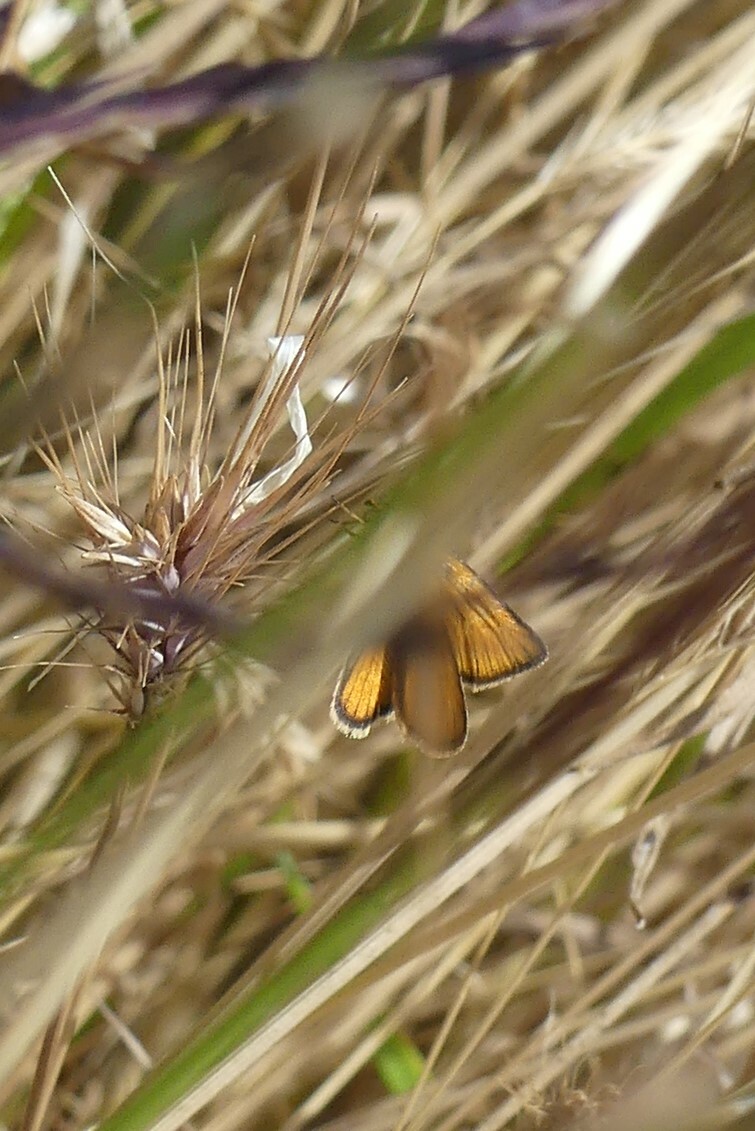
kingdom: Animalia
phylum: Arthropoda
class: Insecta
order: Lepidoptera
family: Hesperiidae
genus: Thymelicus
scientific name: Thymelicus lineola
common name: Essex skipper
